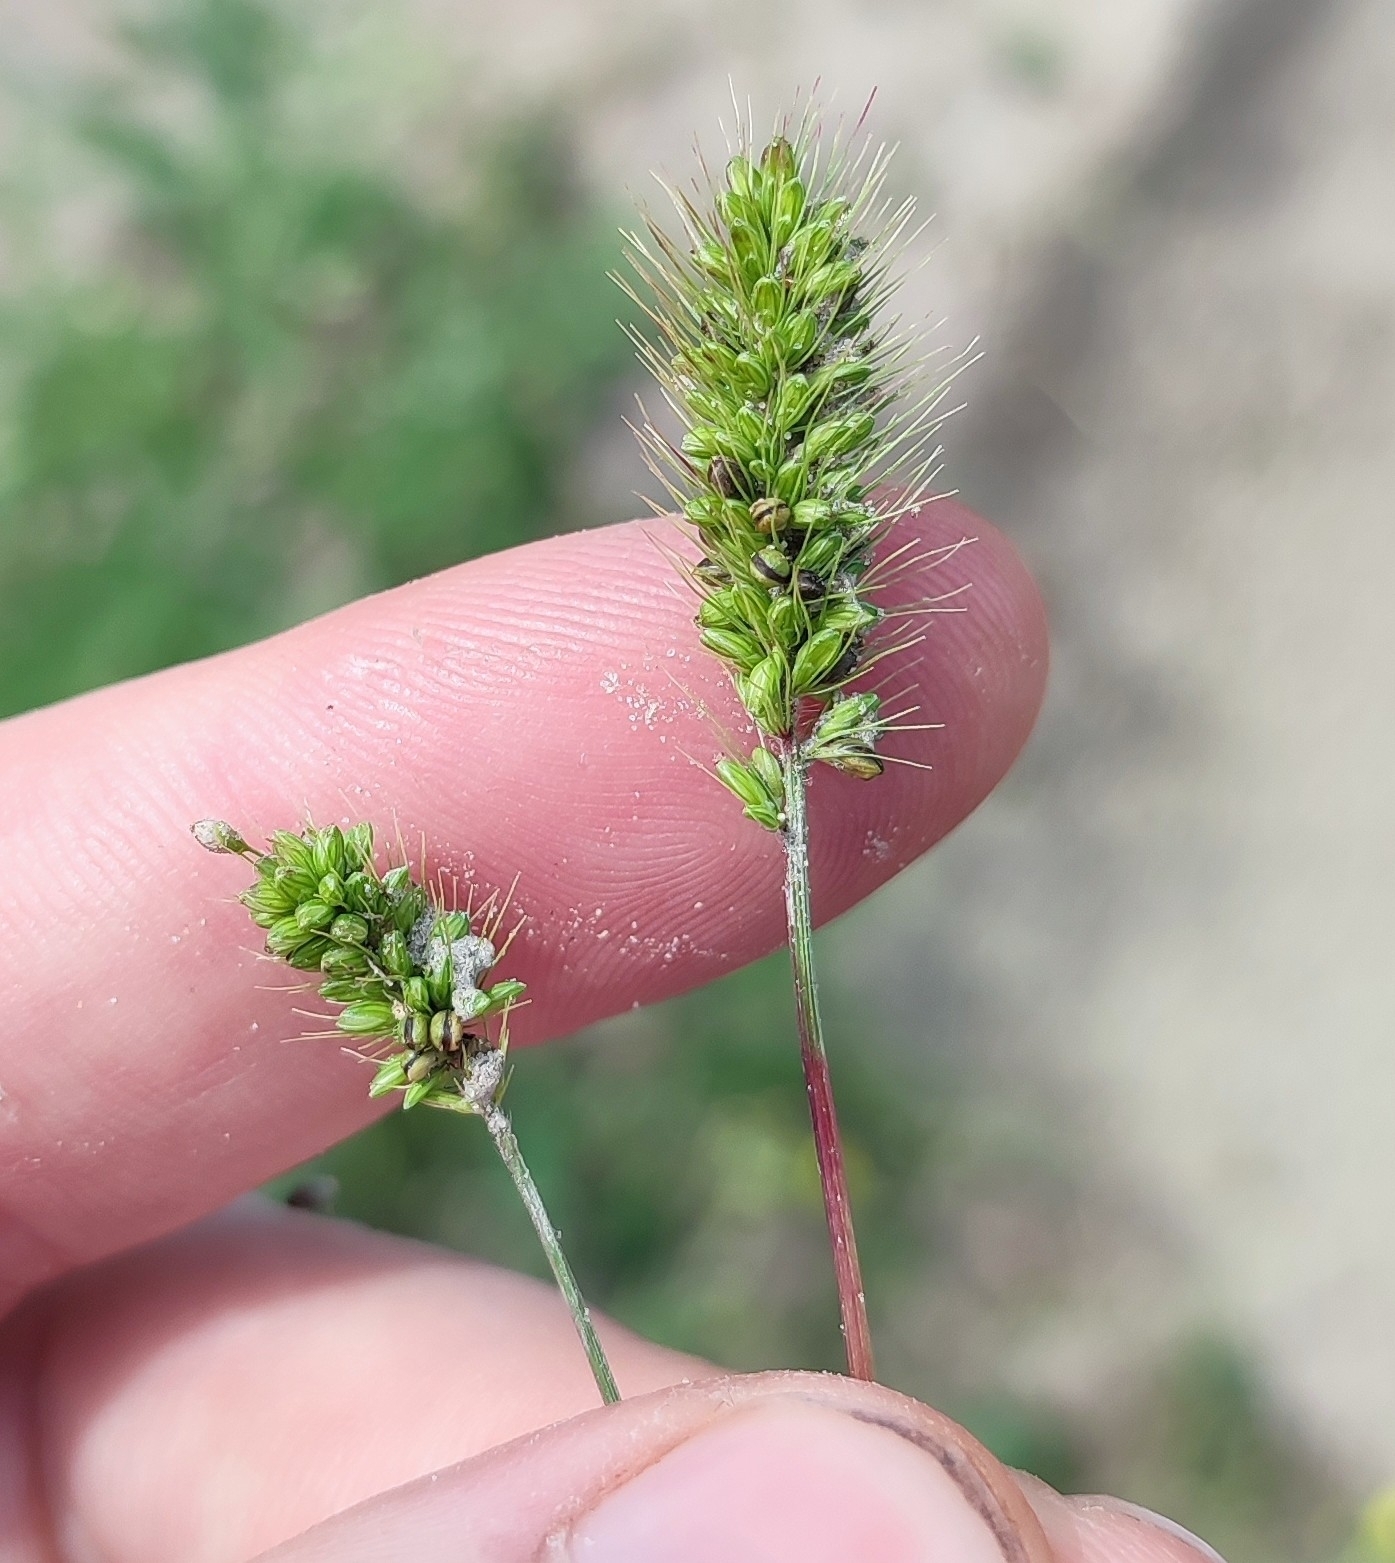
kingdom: Plantae
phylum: Tracheophyta
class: Liliopsida
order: Poales
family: Poaceae
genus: Setaria
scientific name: Setaria viridis
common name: Green bristlegrass
